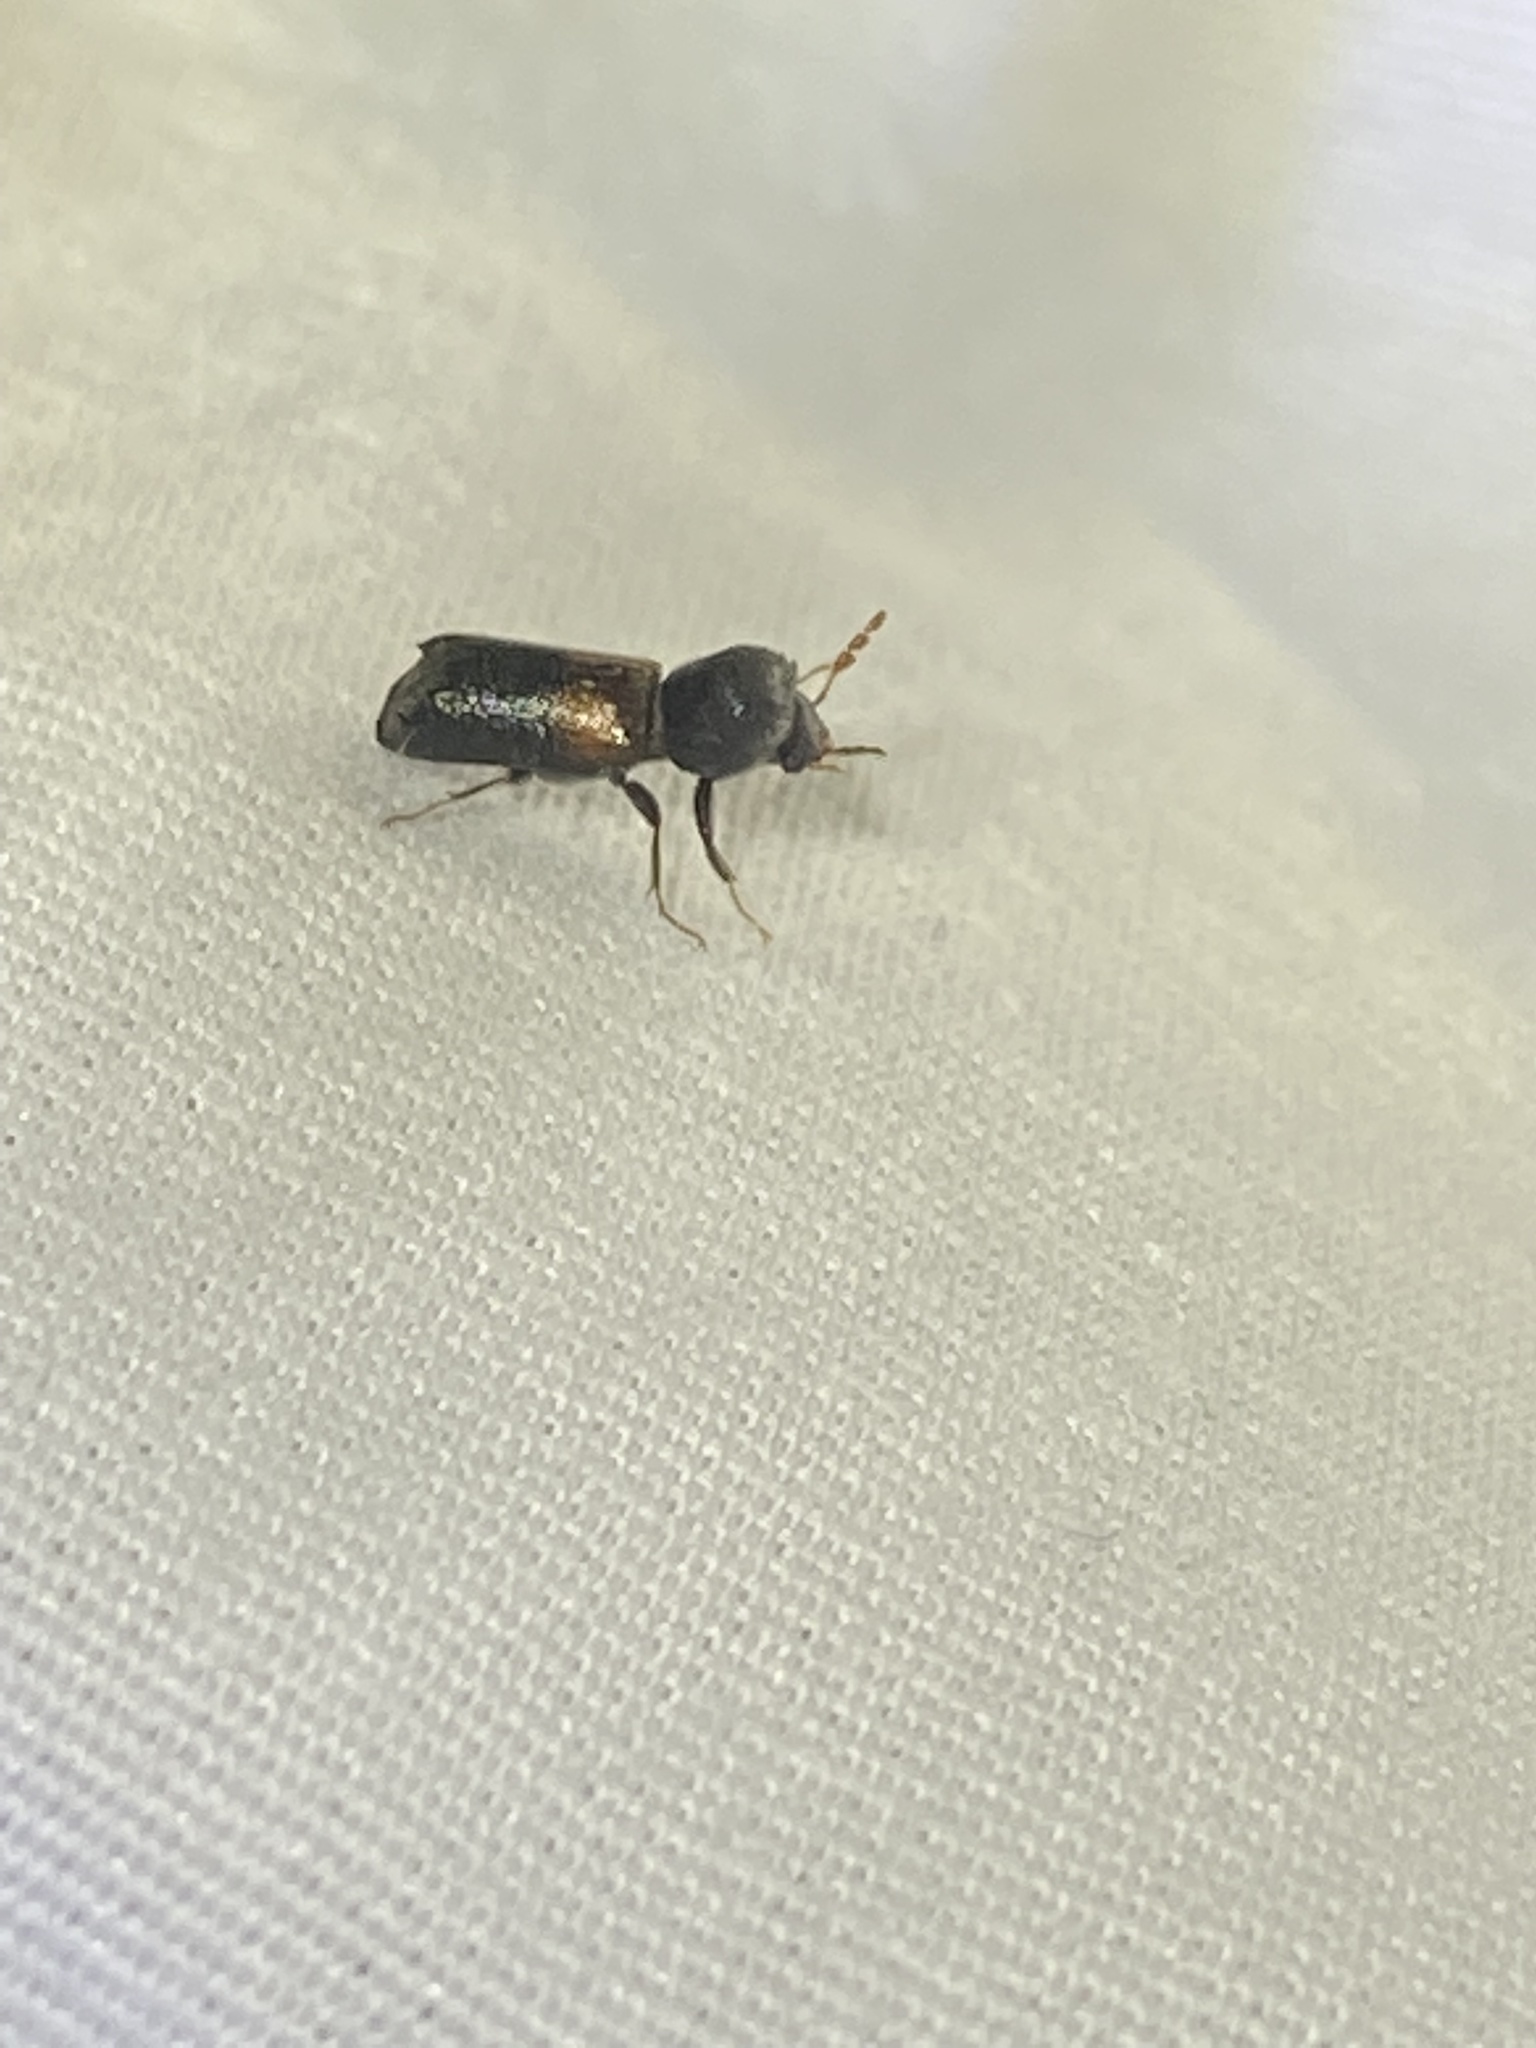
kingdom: Animalia
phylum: Arthropoda
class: Insecta
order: Coleoptera
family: Bostrichidae
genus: Xylobiops
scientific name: Xylobiops basilaris
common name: Red-shouldered bostrichid
